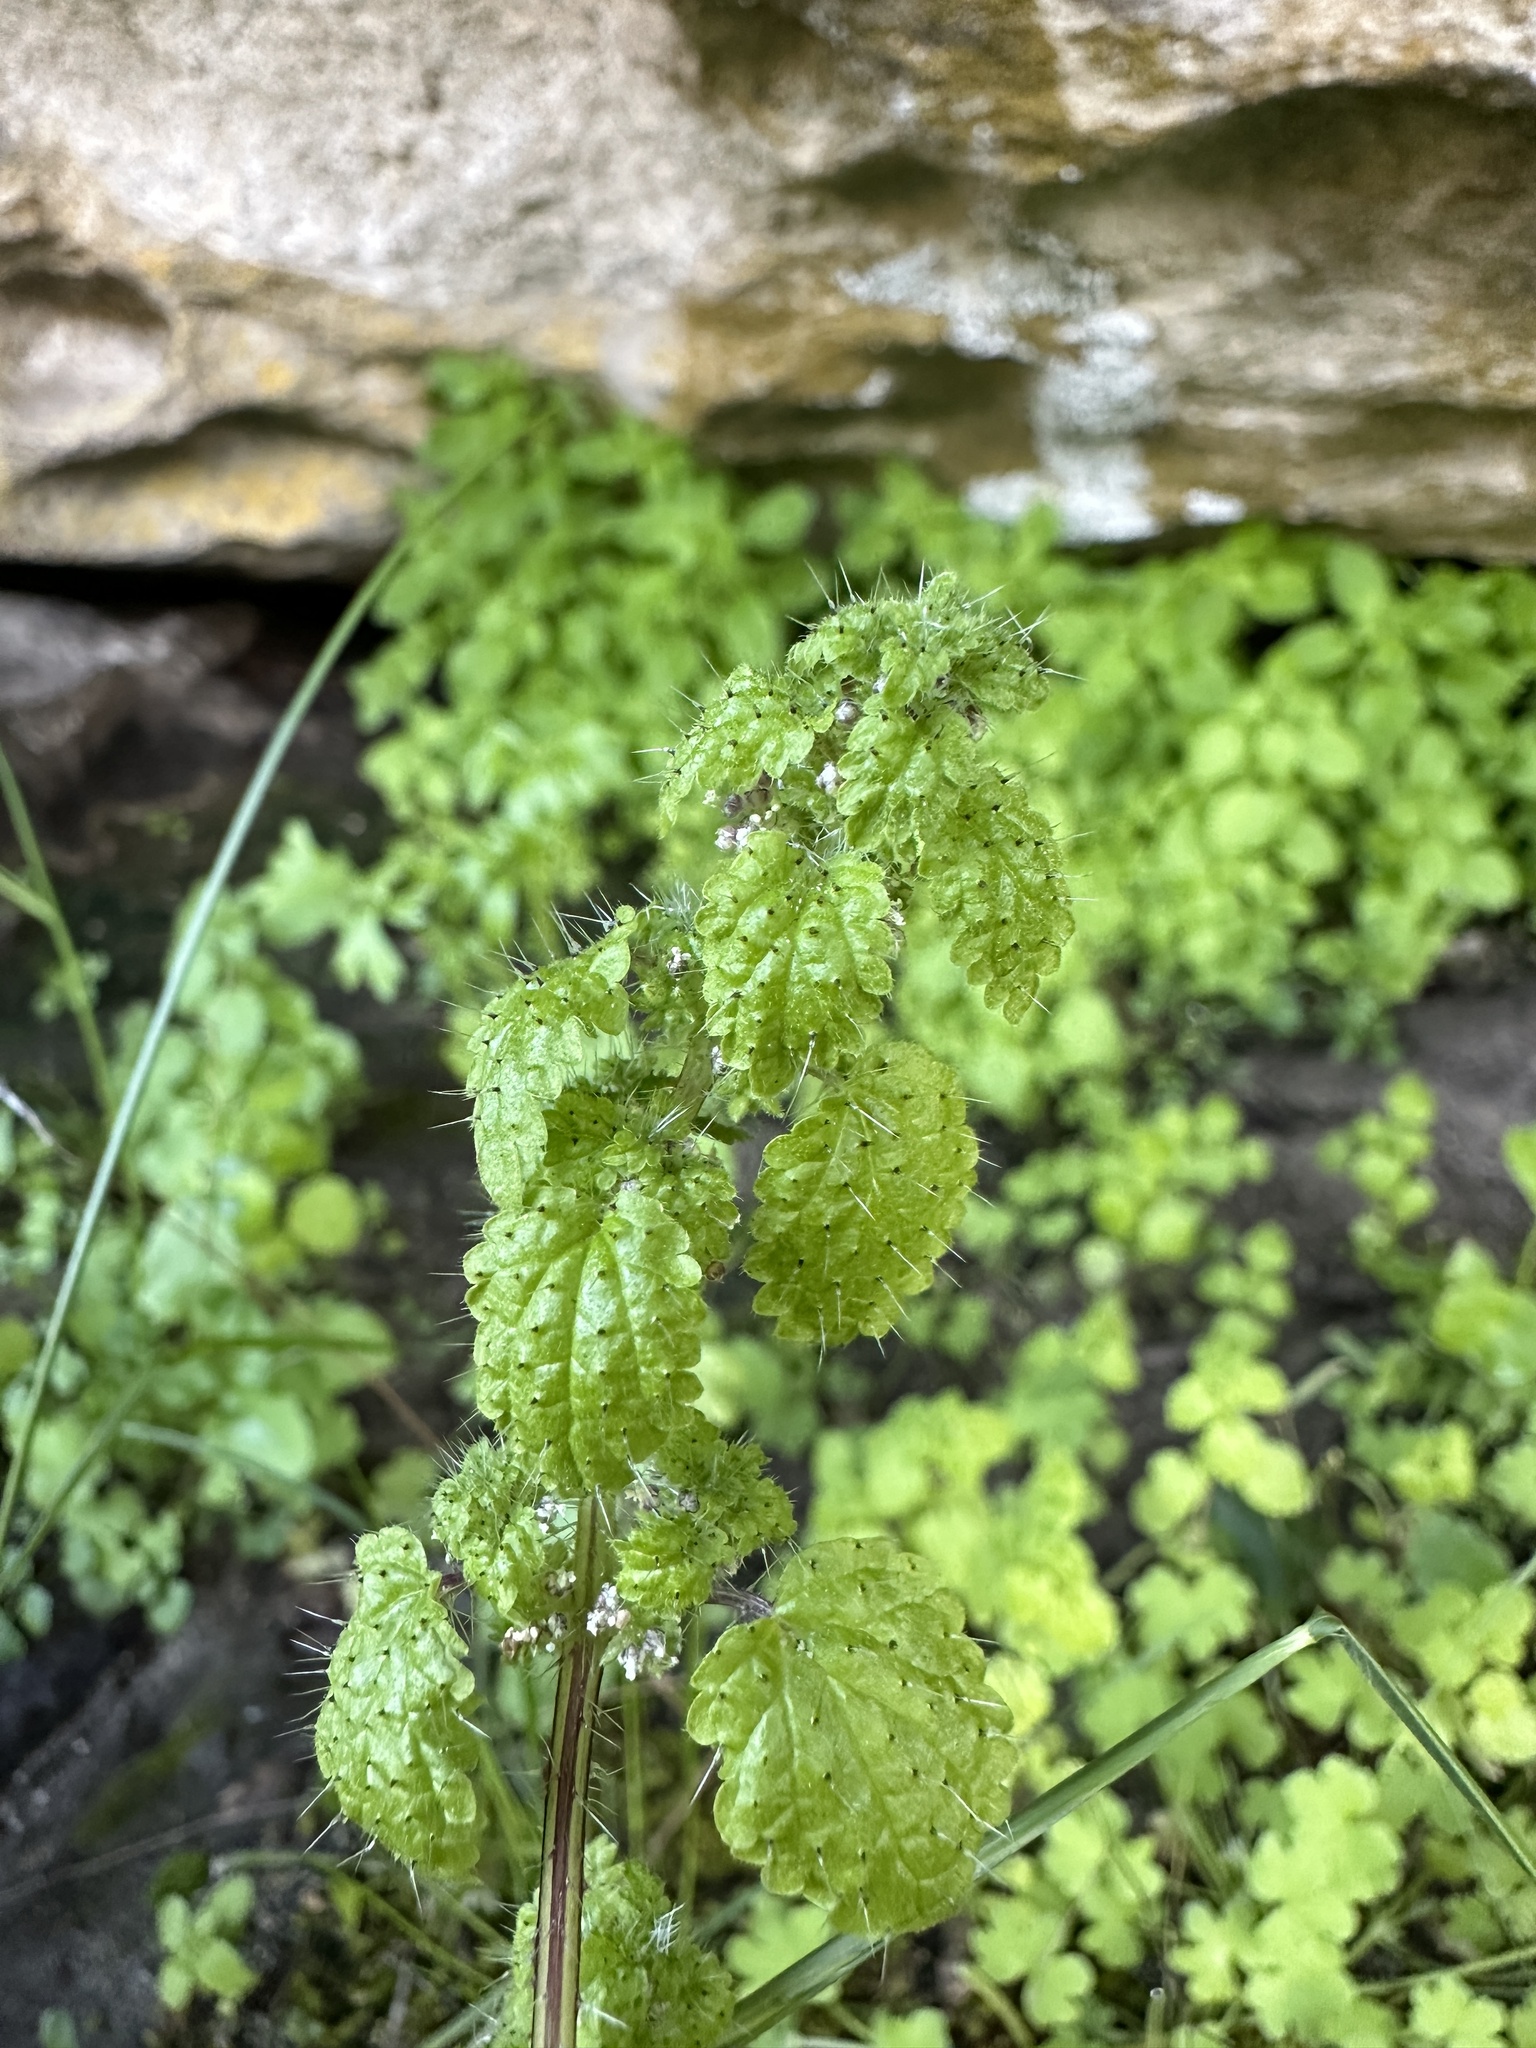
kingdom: Plantae
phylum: Tracheophyta
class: Magnoliopsida
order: Rosales
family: Urticaceae
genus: Hesperocnide
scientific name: Hesperocnide tenella
